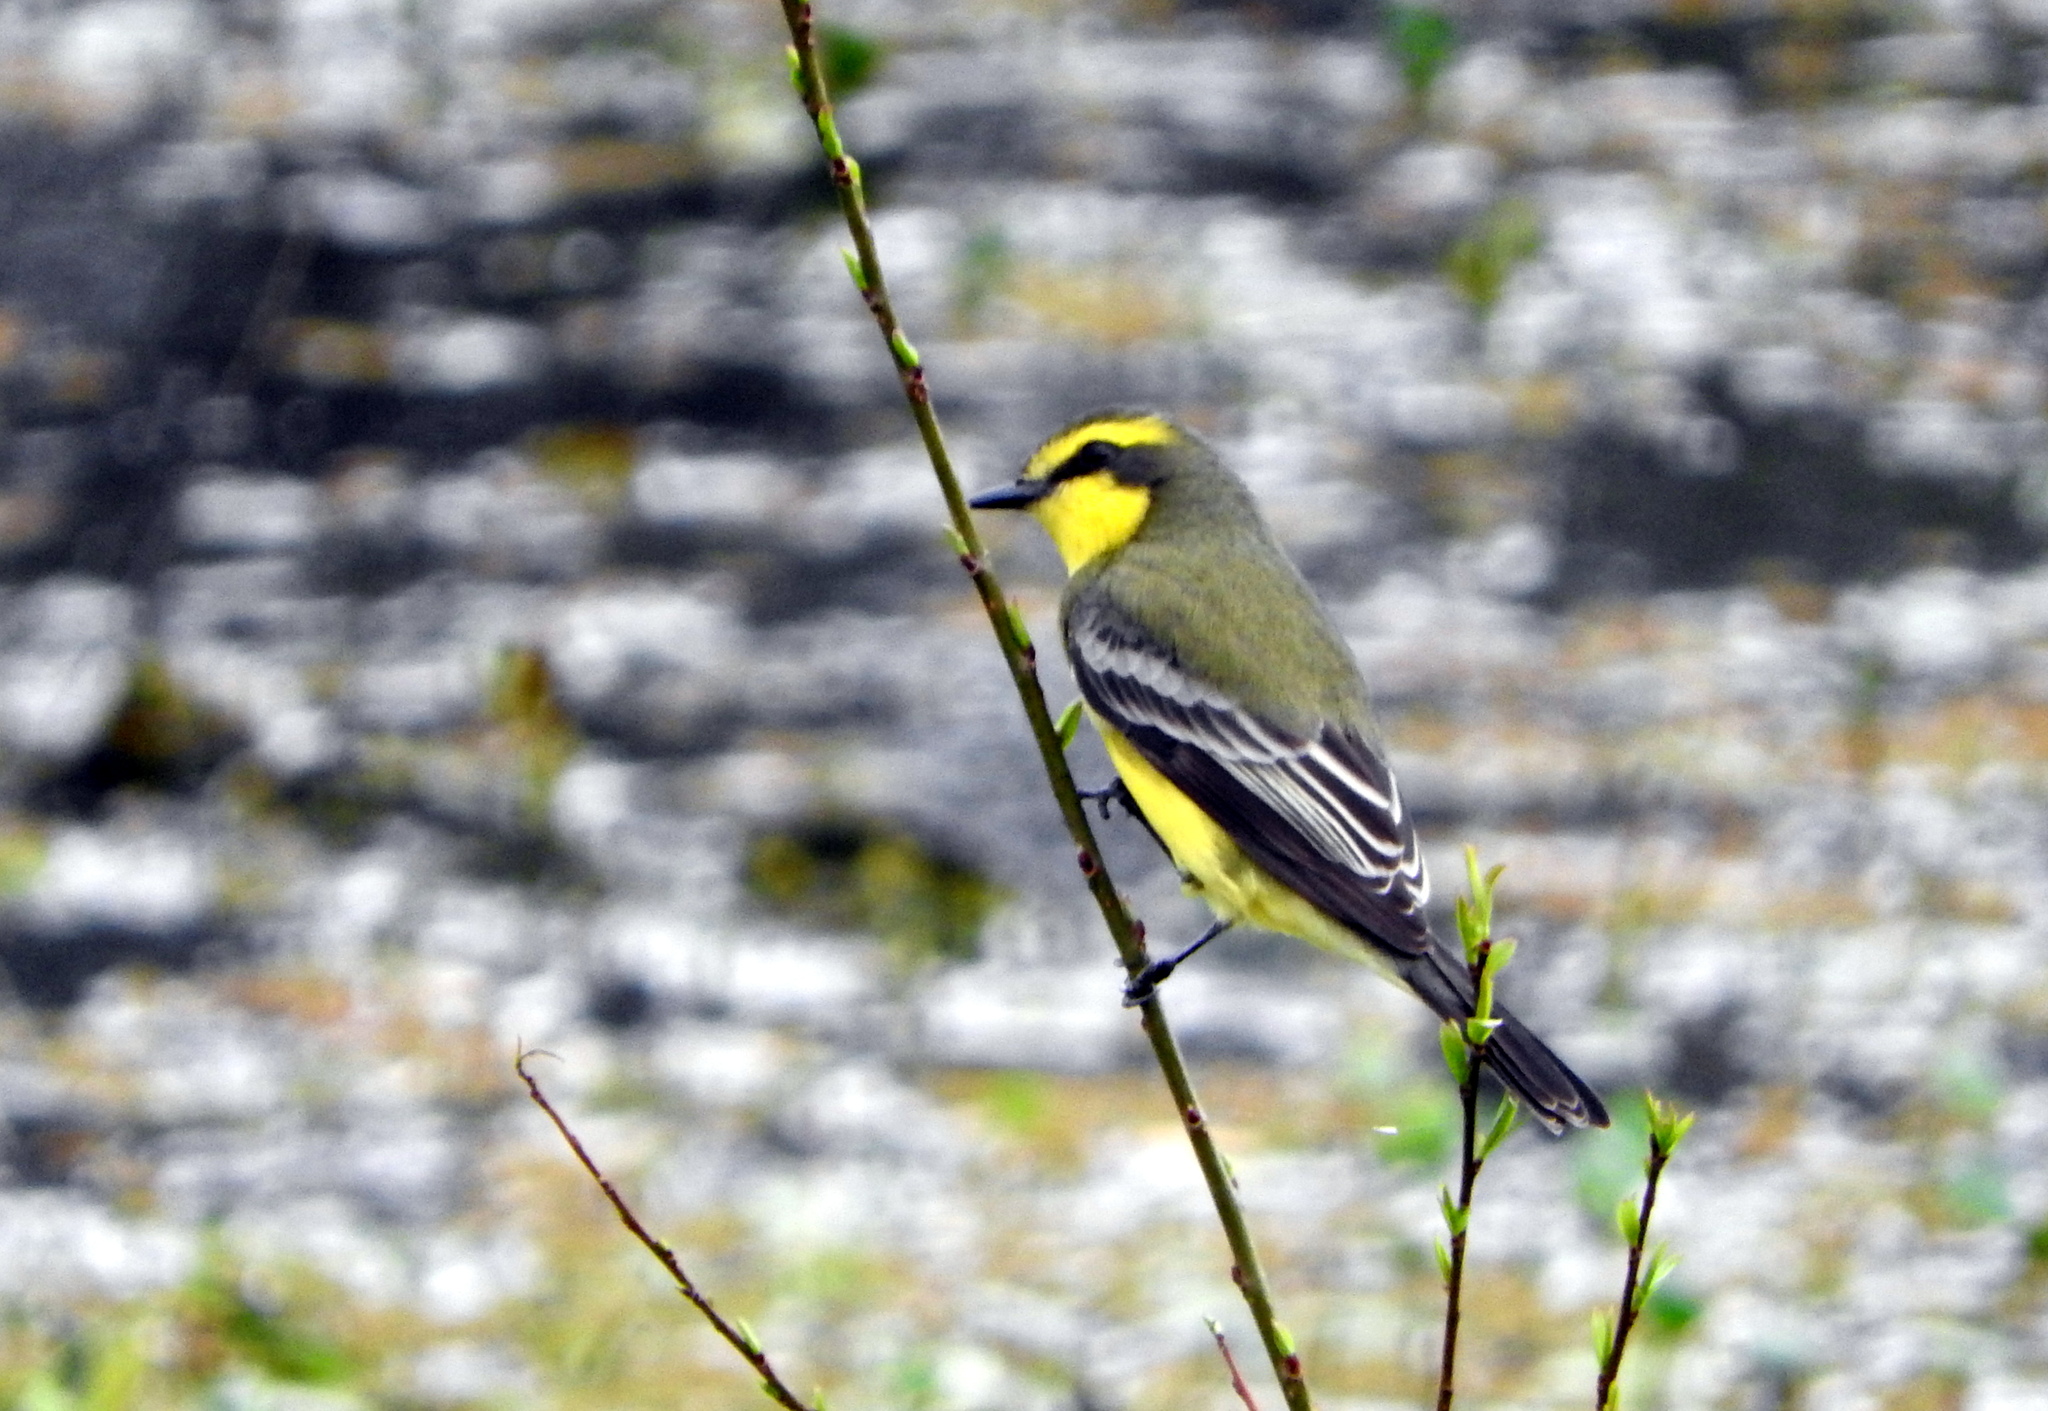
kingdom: Animalia
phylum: Chordata
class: Aves
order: Passeriformes
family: Tyrannidae
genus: Satrapa
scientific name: Satrapa icterophrys
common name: Yellow-browed tyrant
